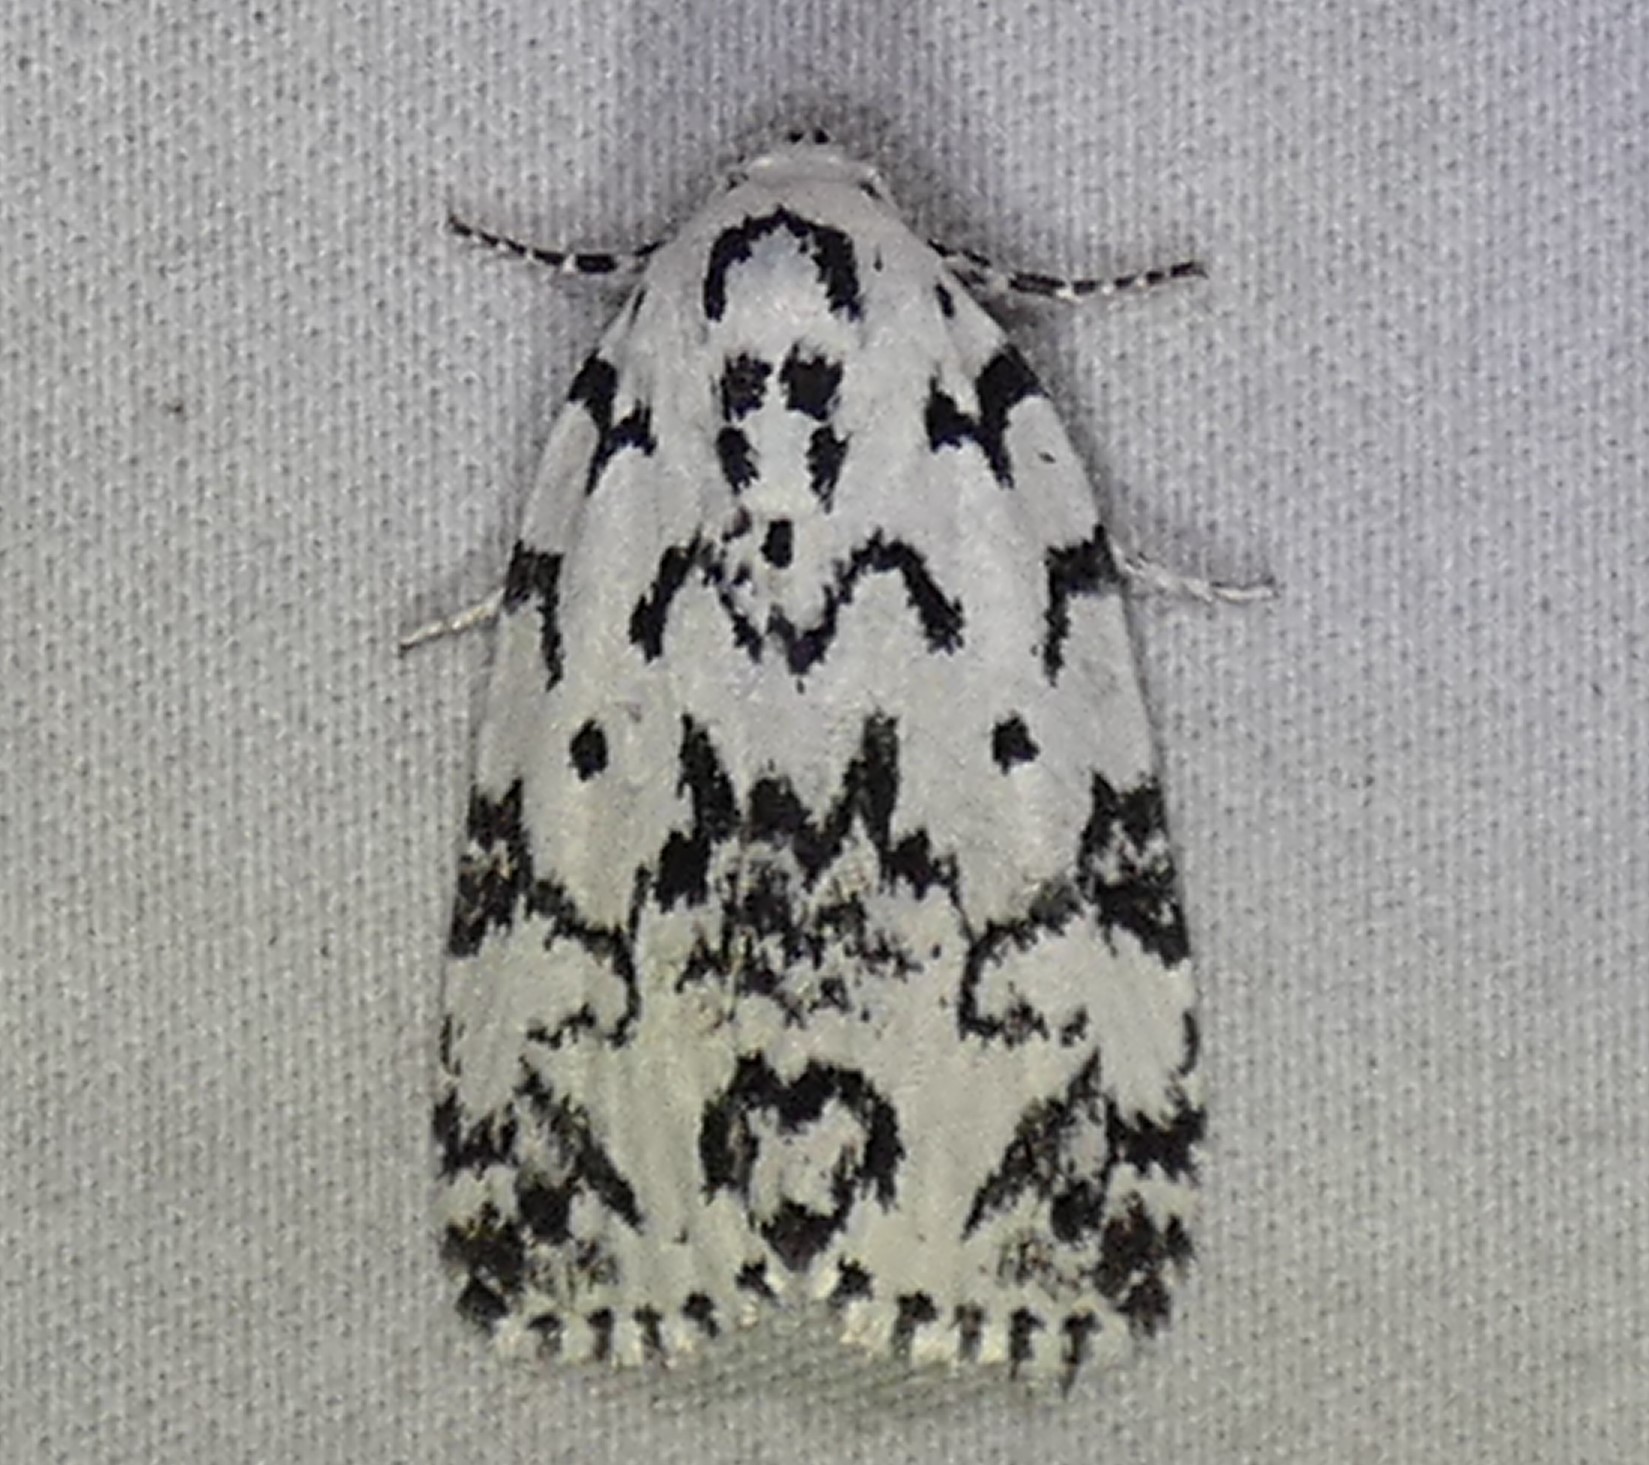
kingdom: Animalia
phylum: Arthropoda
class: Insecta
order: Lepidoptera
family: Noctuidae
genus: Polygrammate
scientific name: Polygrammate hebraeicum
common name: Hebrew moth
